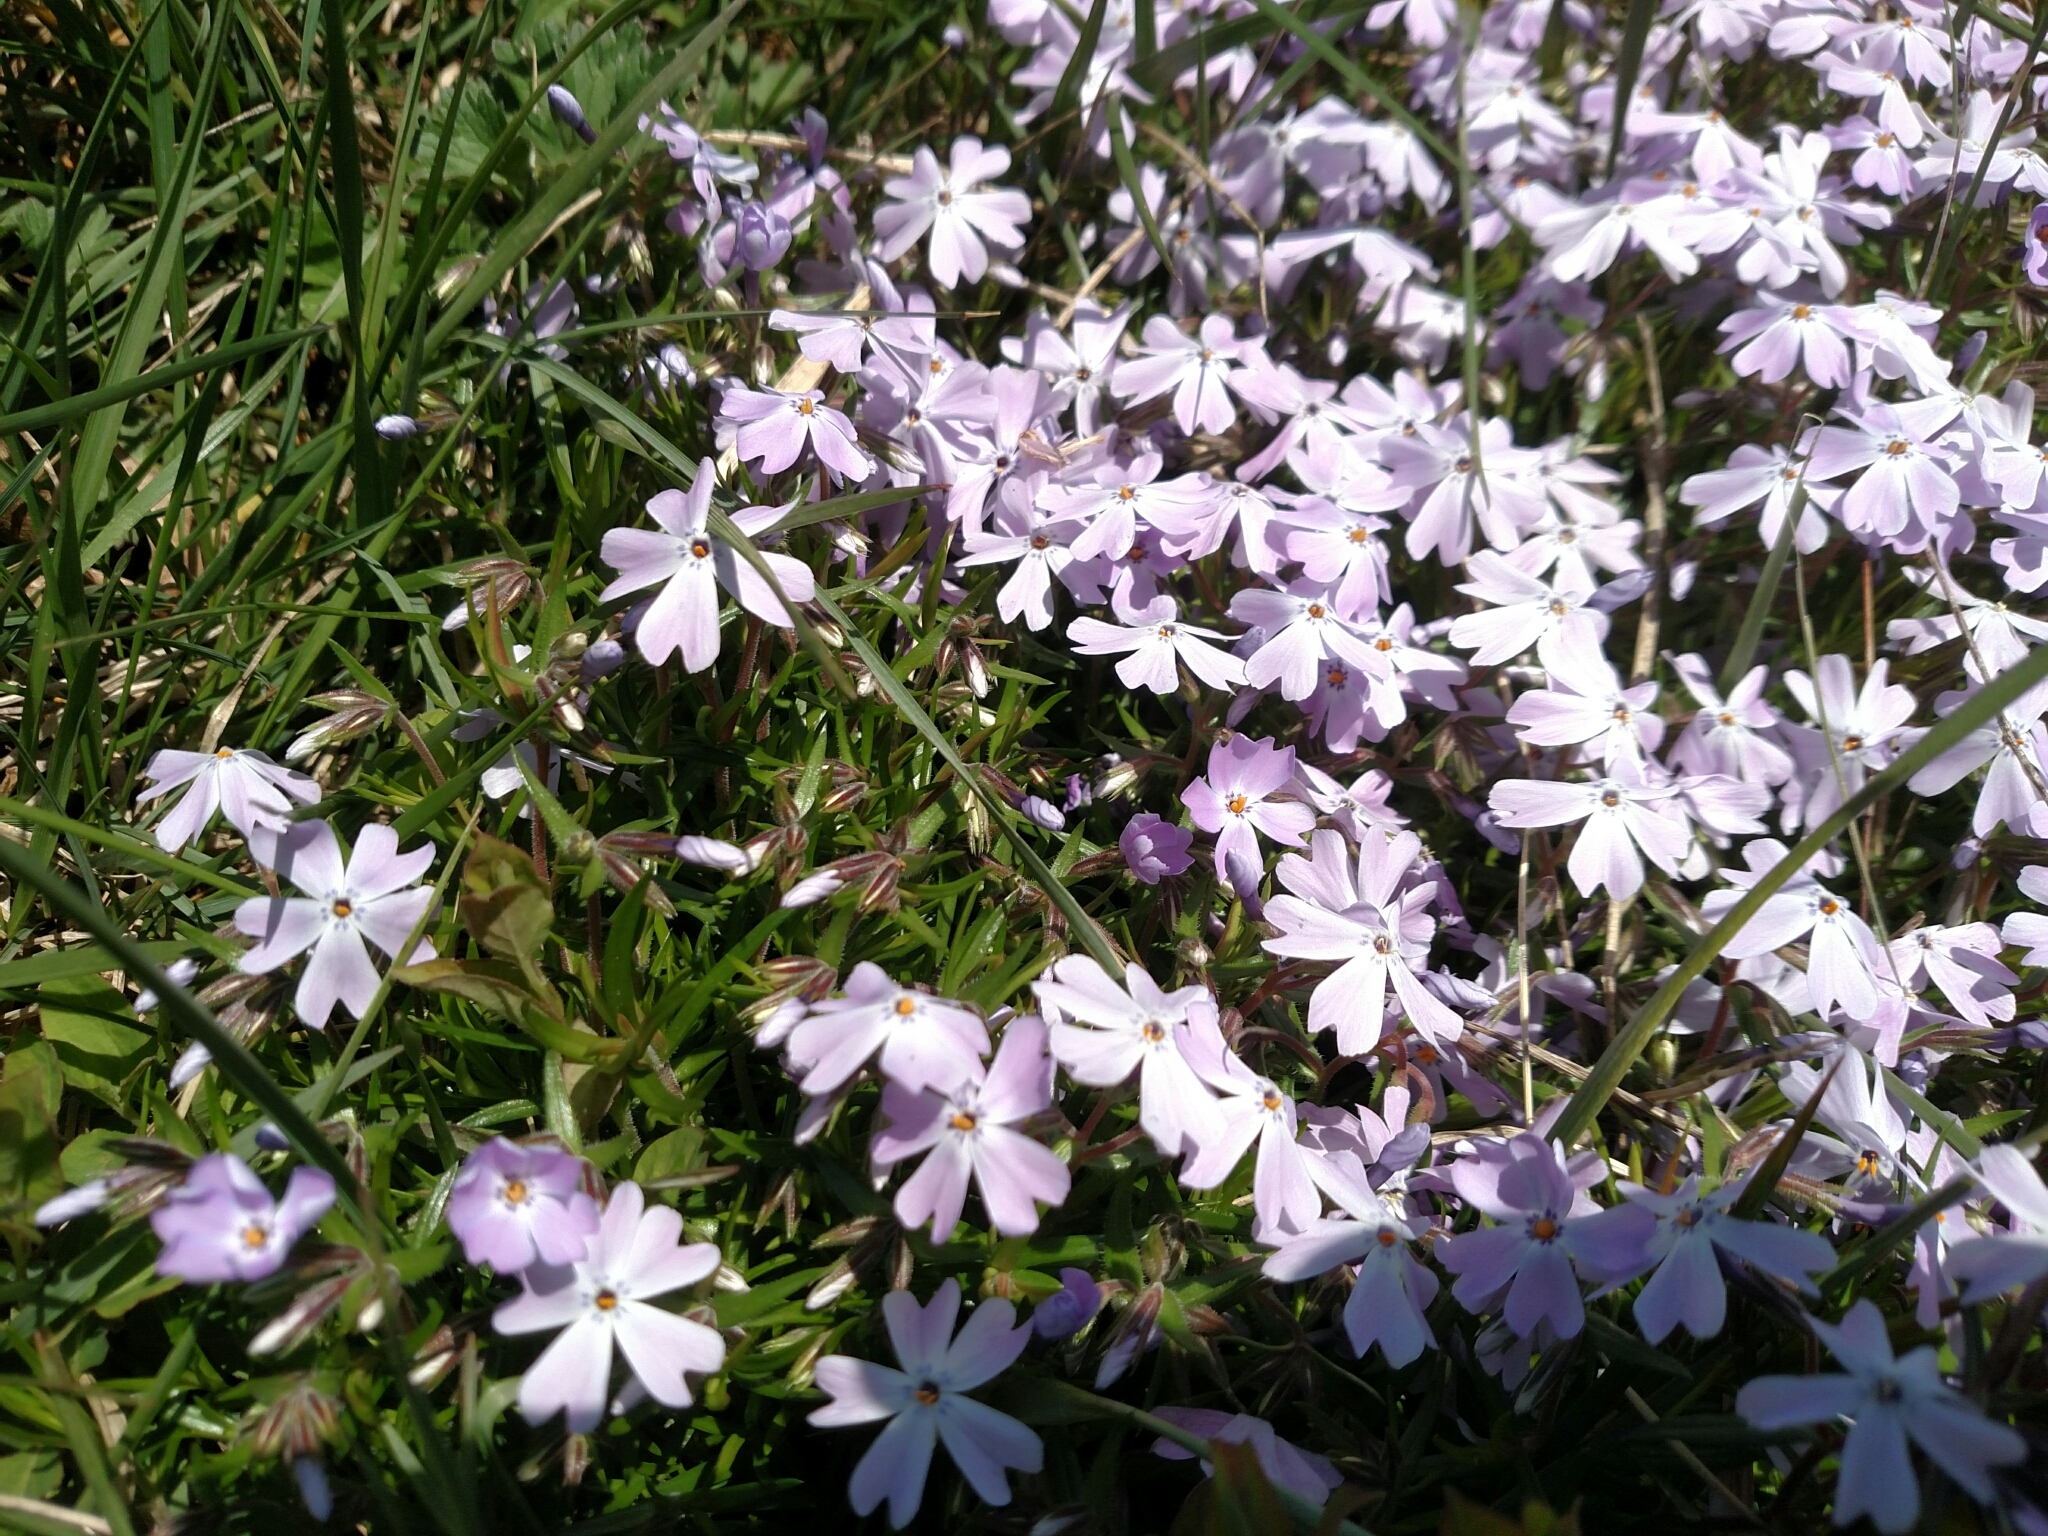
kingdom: Plantae
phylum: Tracheophyta
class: Magnoliopsida
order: Ericales
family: Polemoniaceae
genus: Phlox
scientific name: Phlox subulata
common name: Moss phlox
